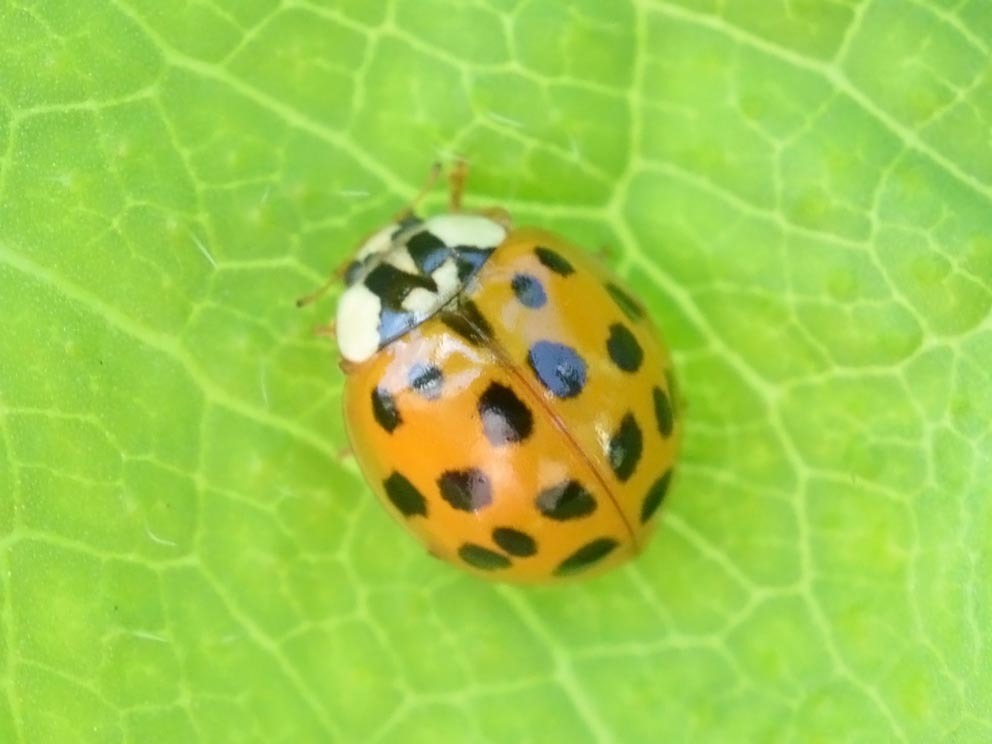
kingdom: Animalia
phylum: Arthropoda
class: Insecta
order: Coleoptera
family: Coccinellidae
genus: Harmonia
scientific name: Harmonia axyridis
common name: Harlequin ladybird
